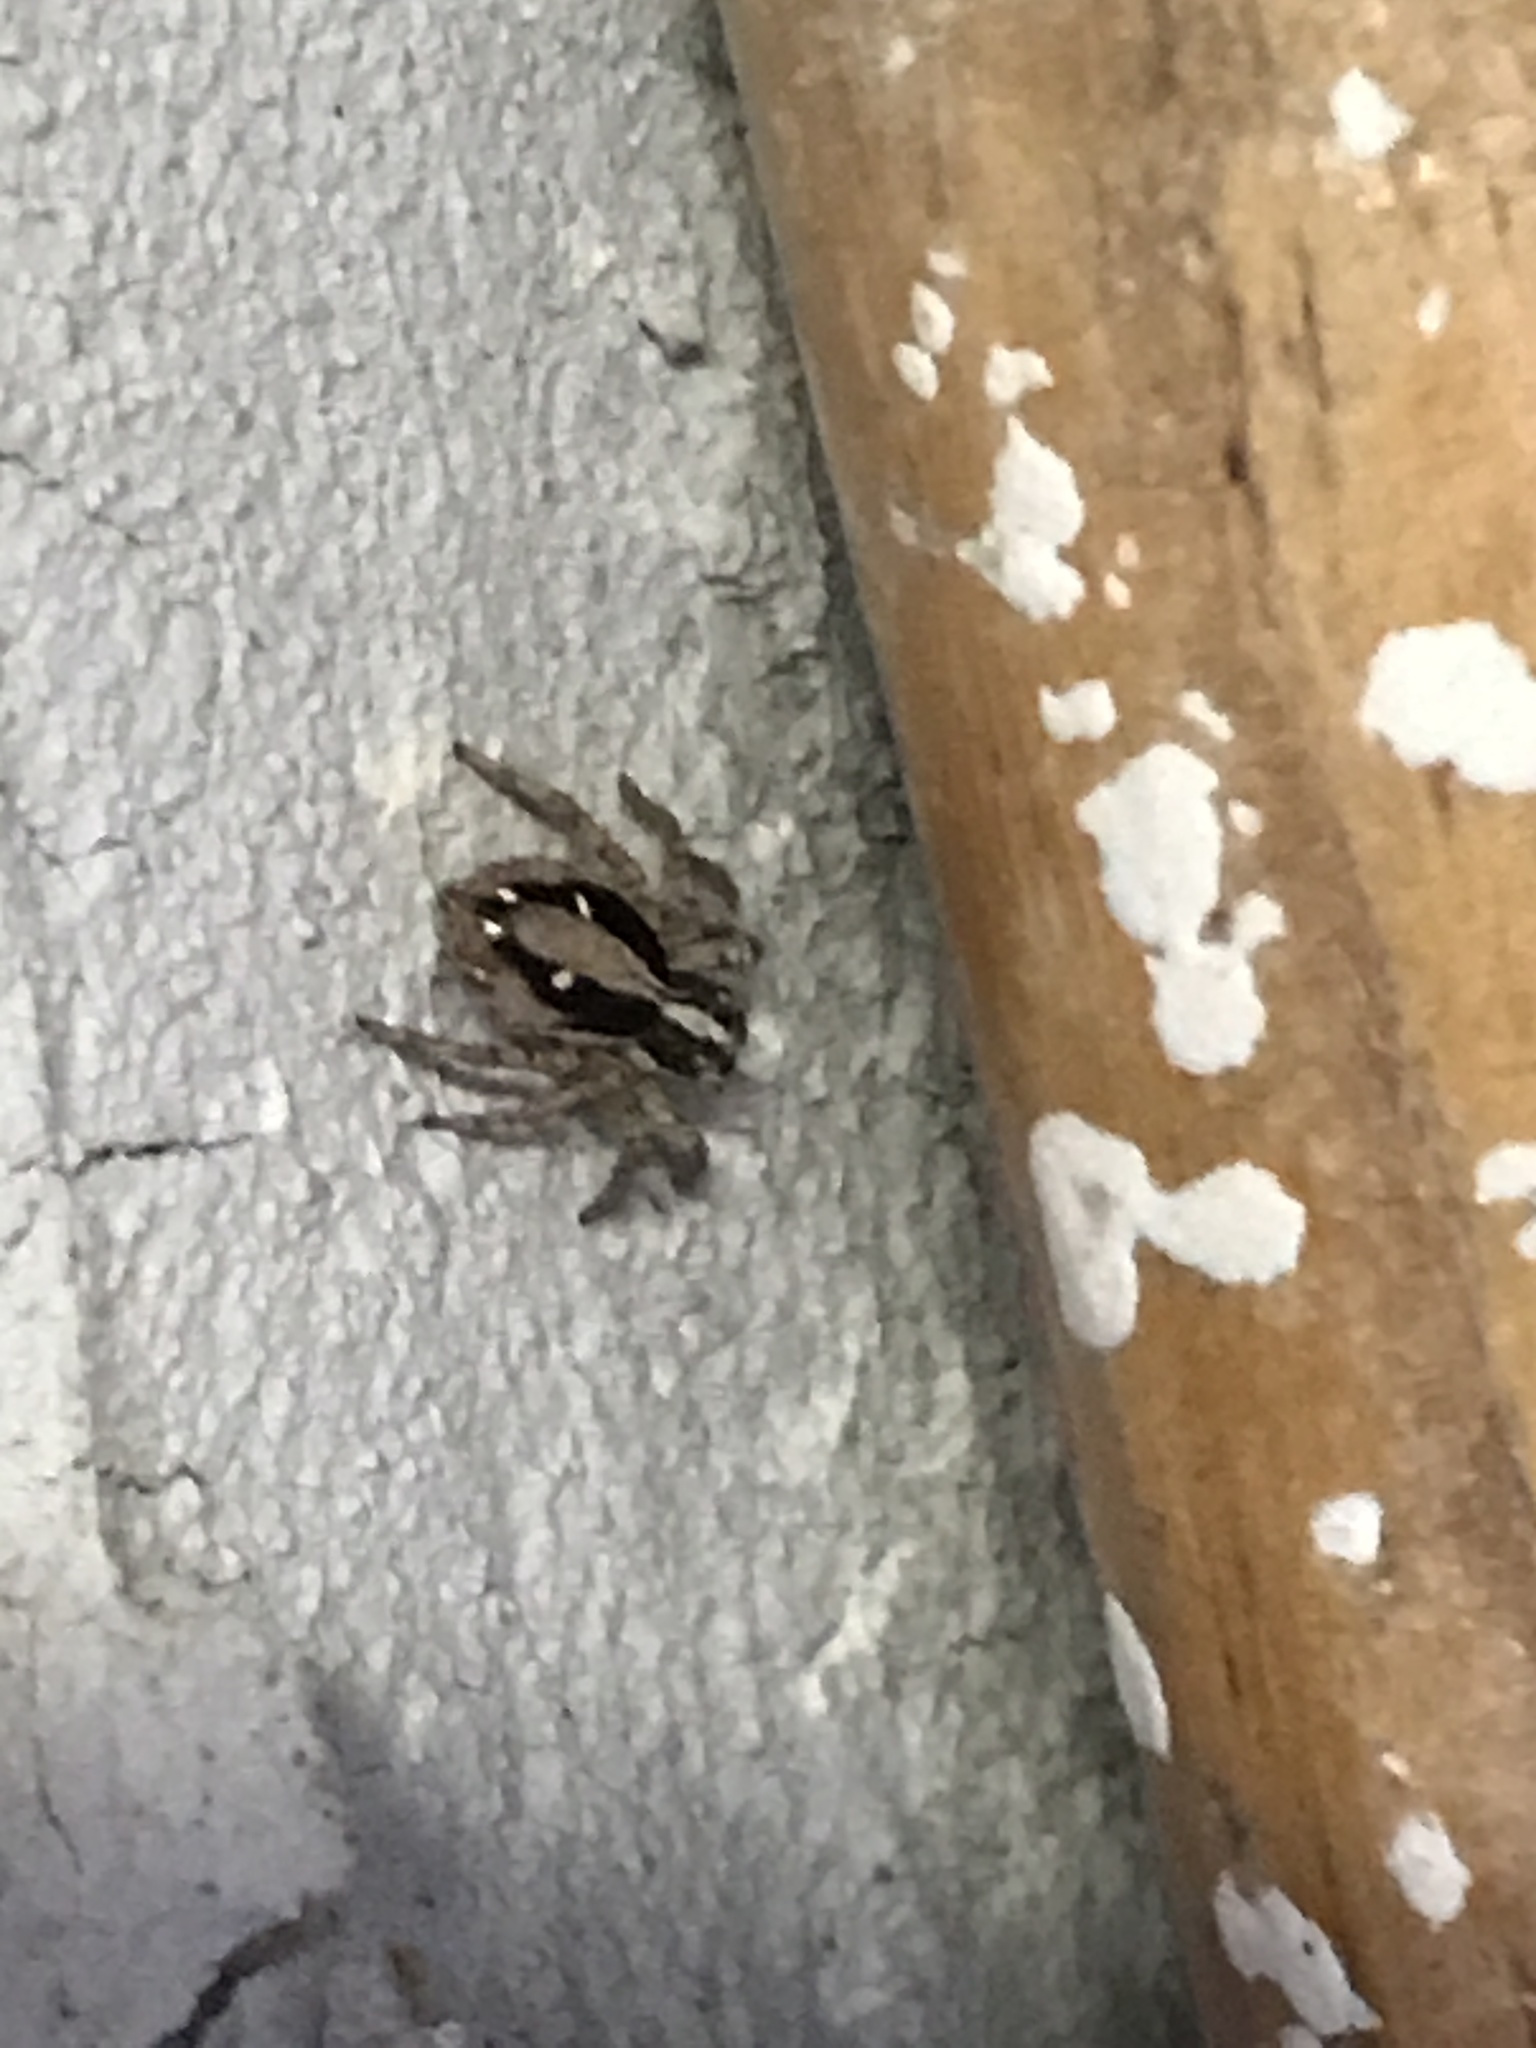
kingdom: Animalia
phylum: Arthropoda
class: Arachnida
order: Araneae
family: Salticidae
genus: Plexippus
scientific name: Plexippus paykulli
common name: Pantropical jumper
